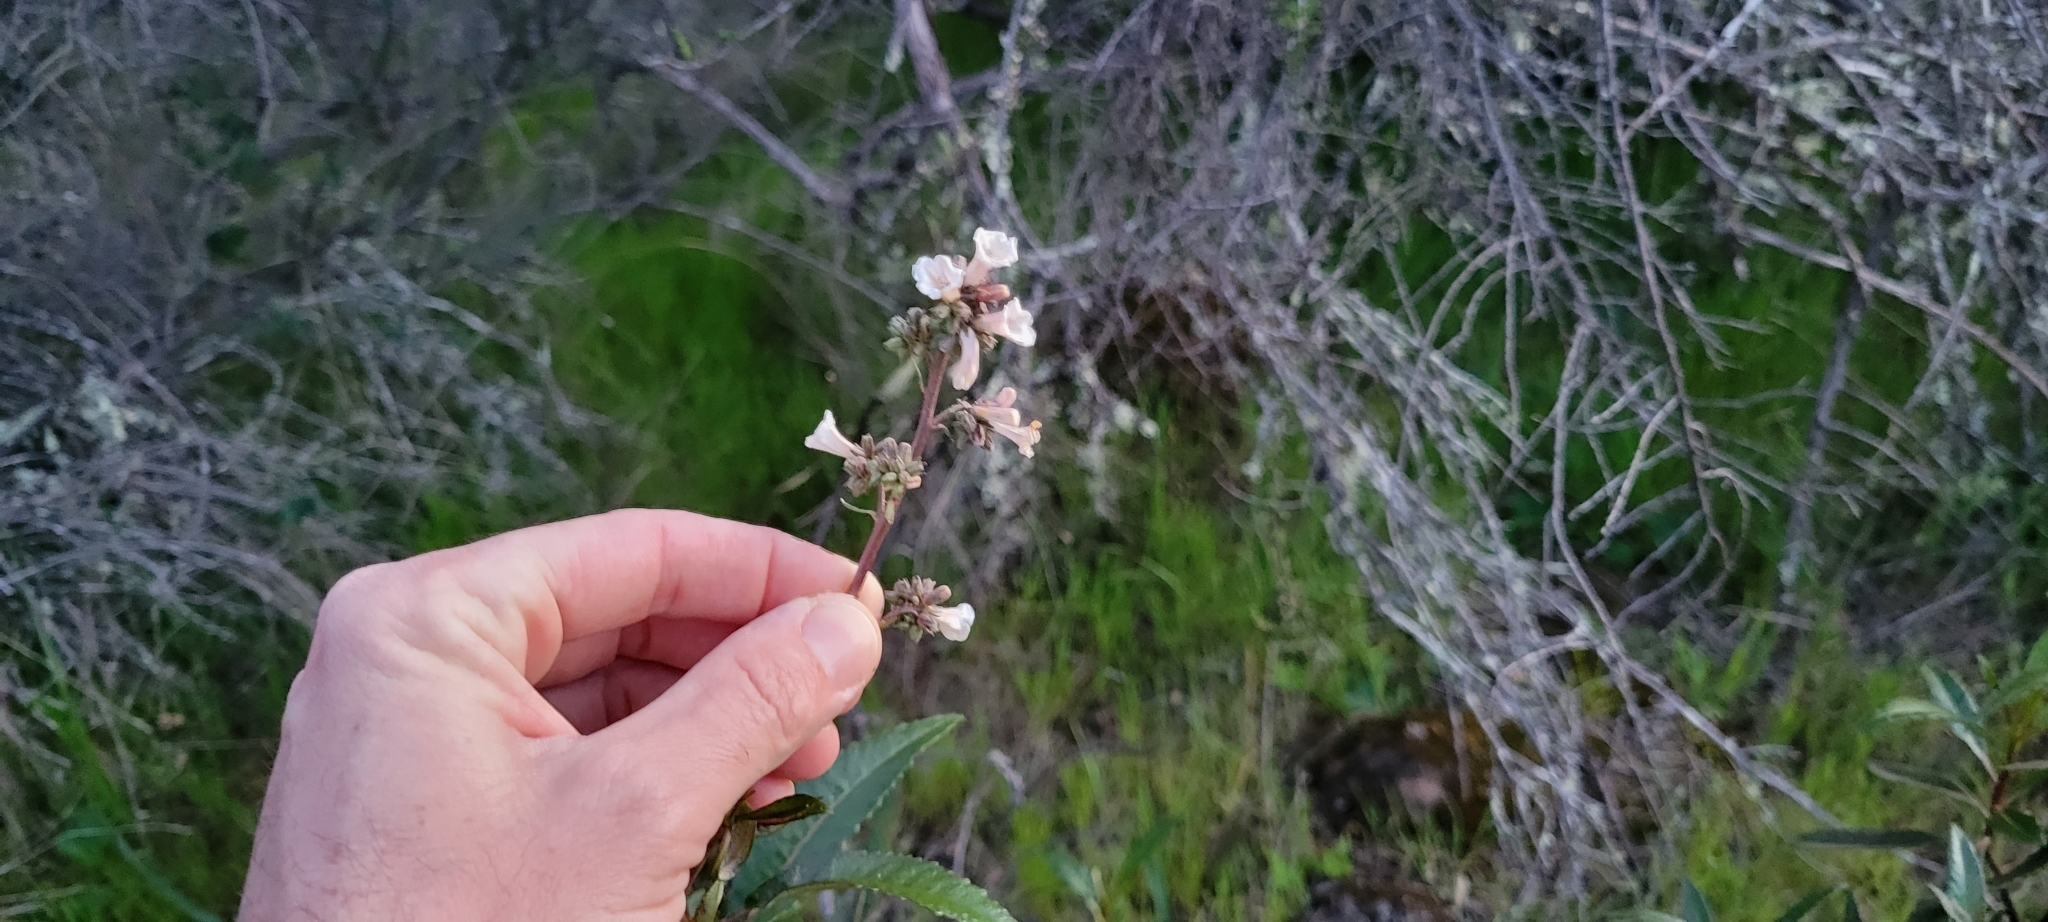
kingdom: Plantae
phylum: Tracheophyta
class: Magnoliopsida
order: Boraginales
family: Namaceae
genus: Eriodictyon
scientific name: Eriodictyon californicum
